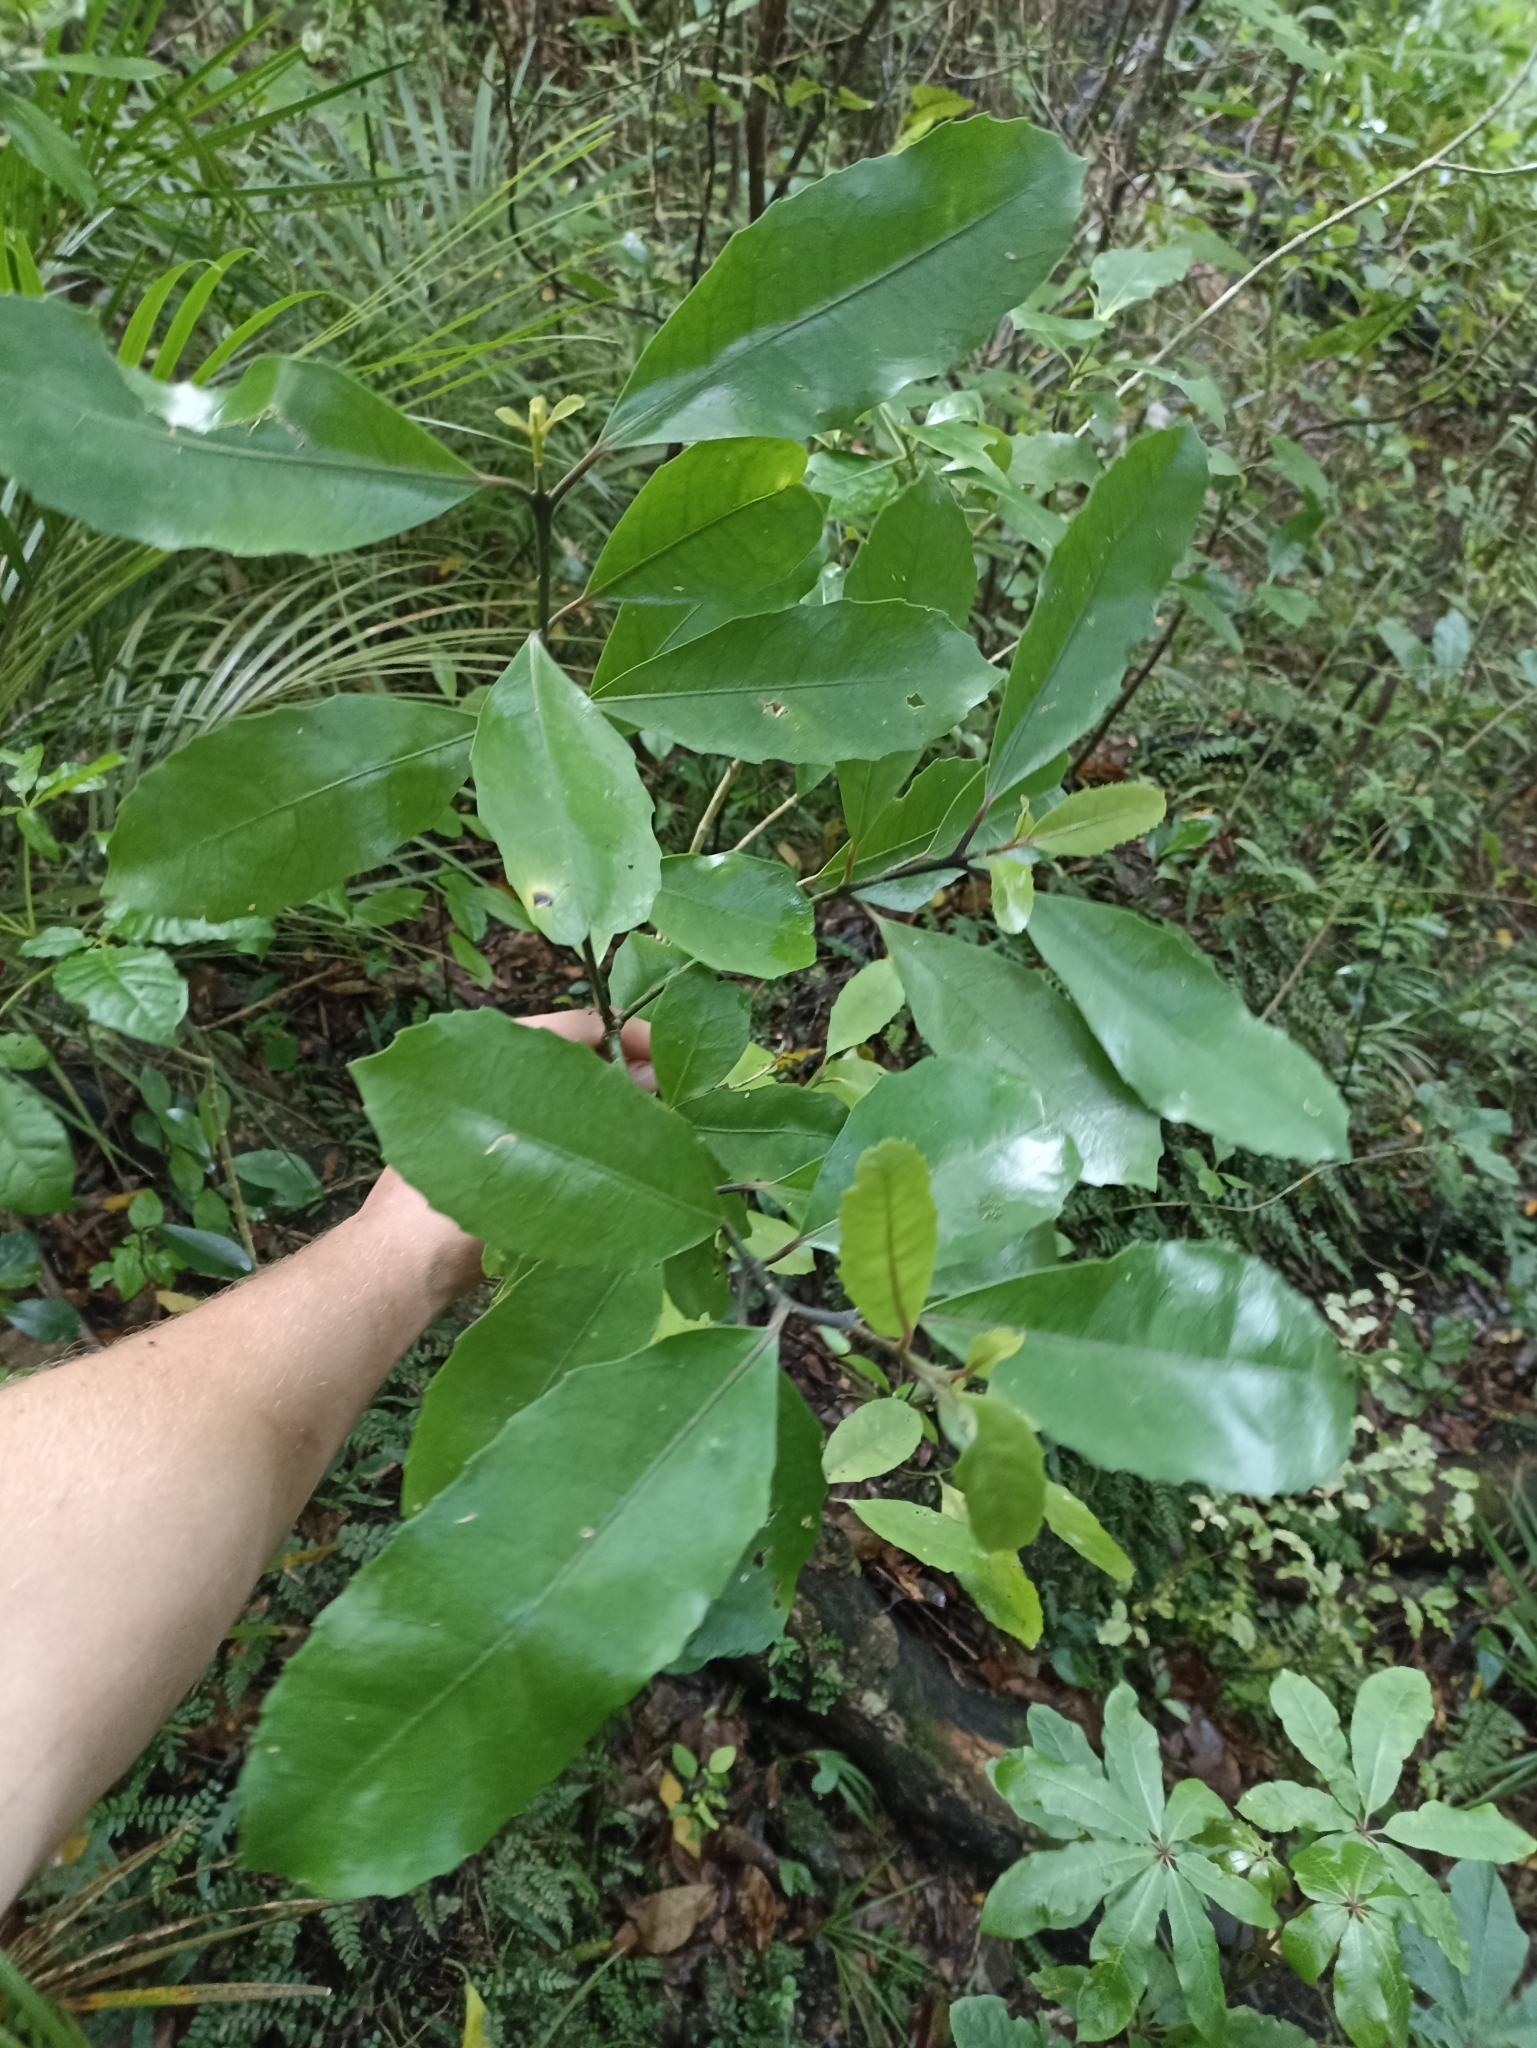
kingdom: Plantae
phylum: Tracheophyta
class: Magnoliopsida
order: Laurales
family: Monimiaceae
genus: Hedycarya
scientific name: Hedycarya arborea
